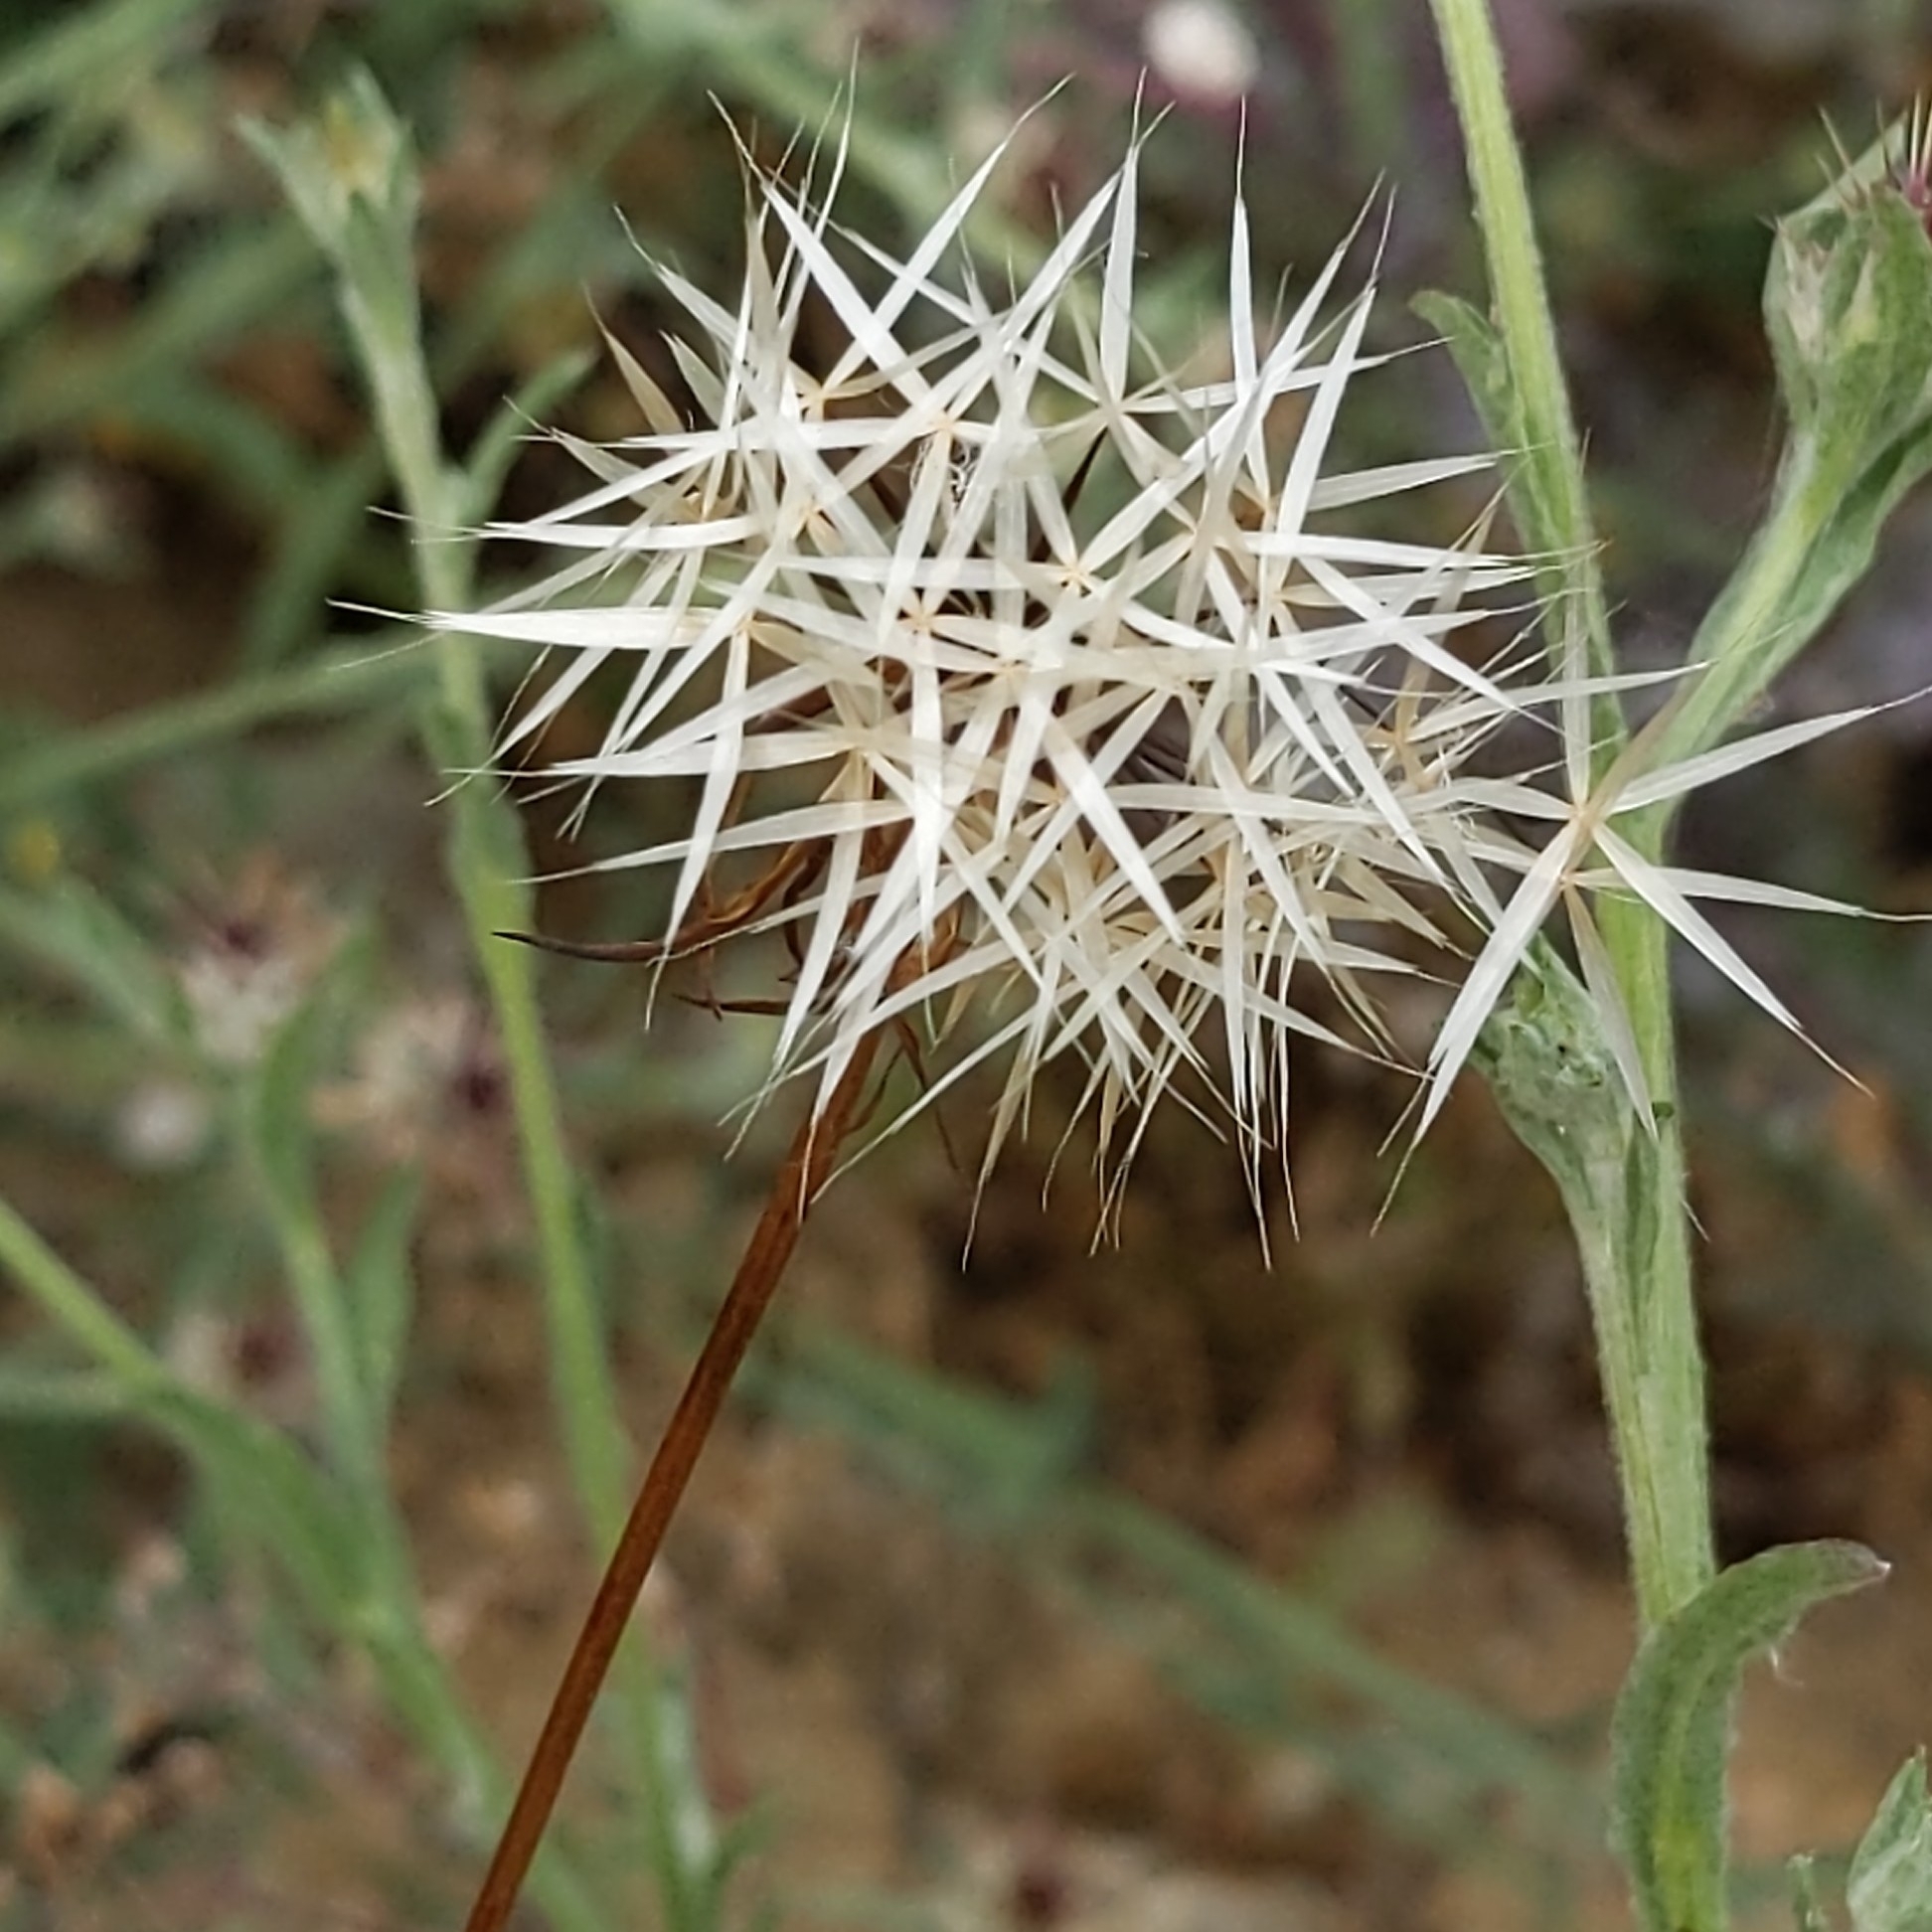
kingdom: Plantae
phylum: Tracheophyta
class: Magnoliopsida
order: Asterales
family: Asteraceae
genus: Microseris
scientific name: Microseris lindleyi
